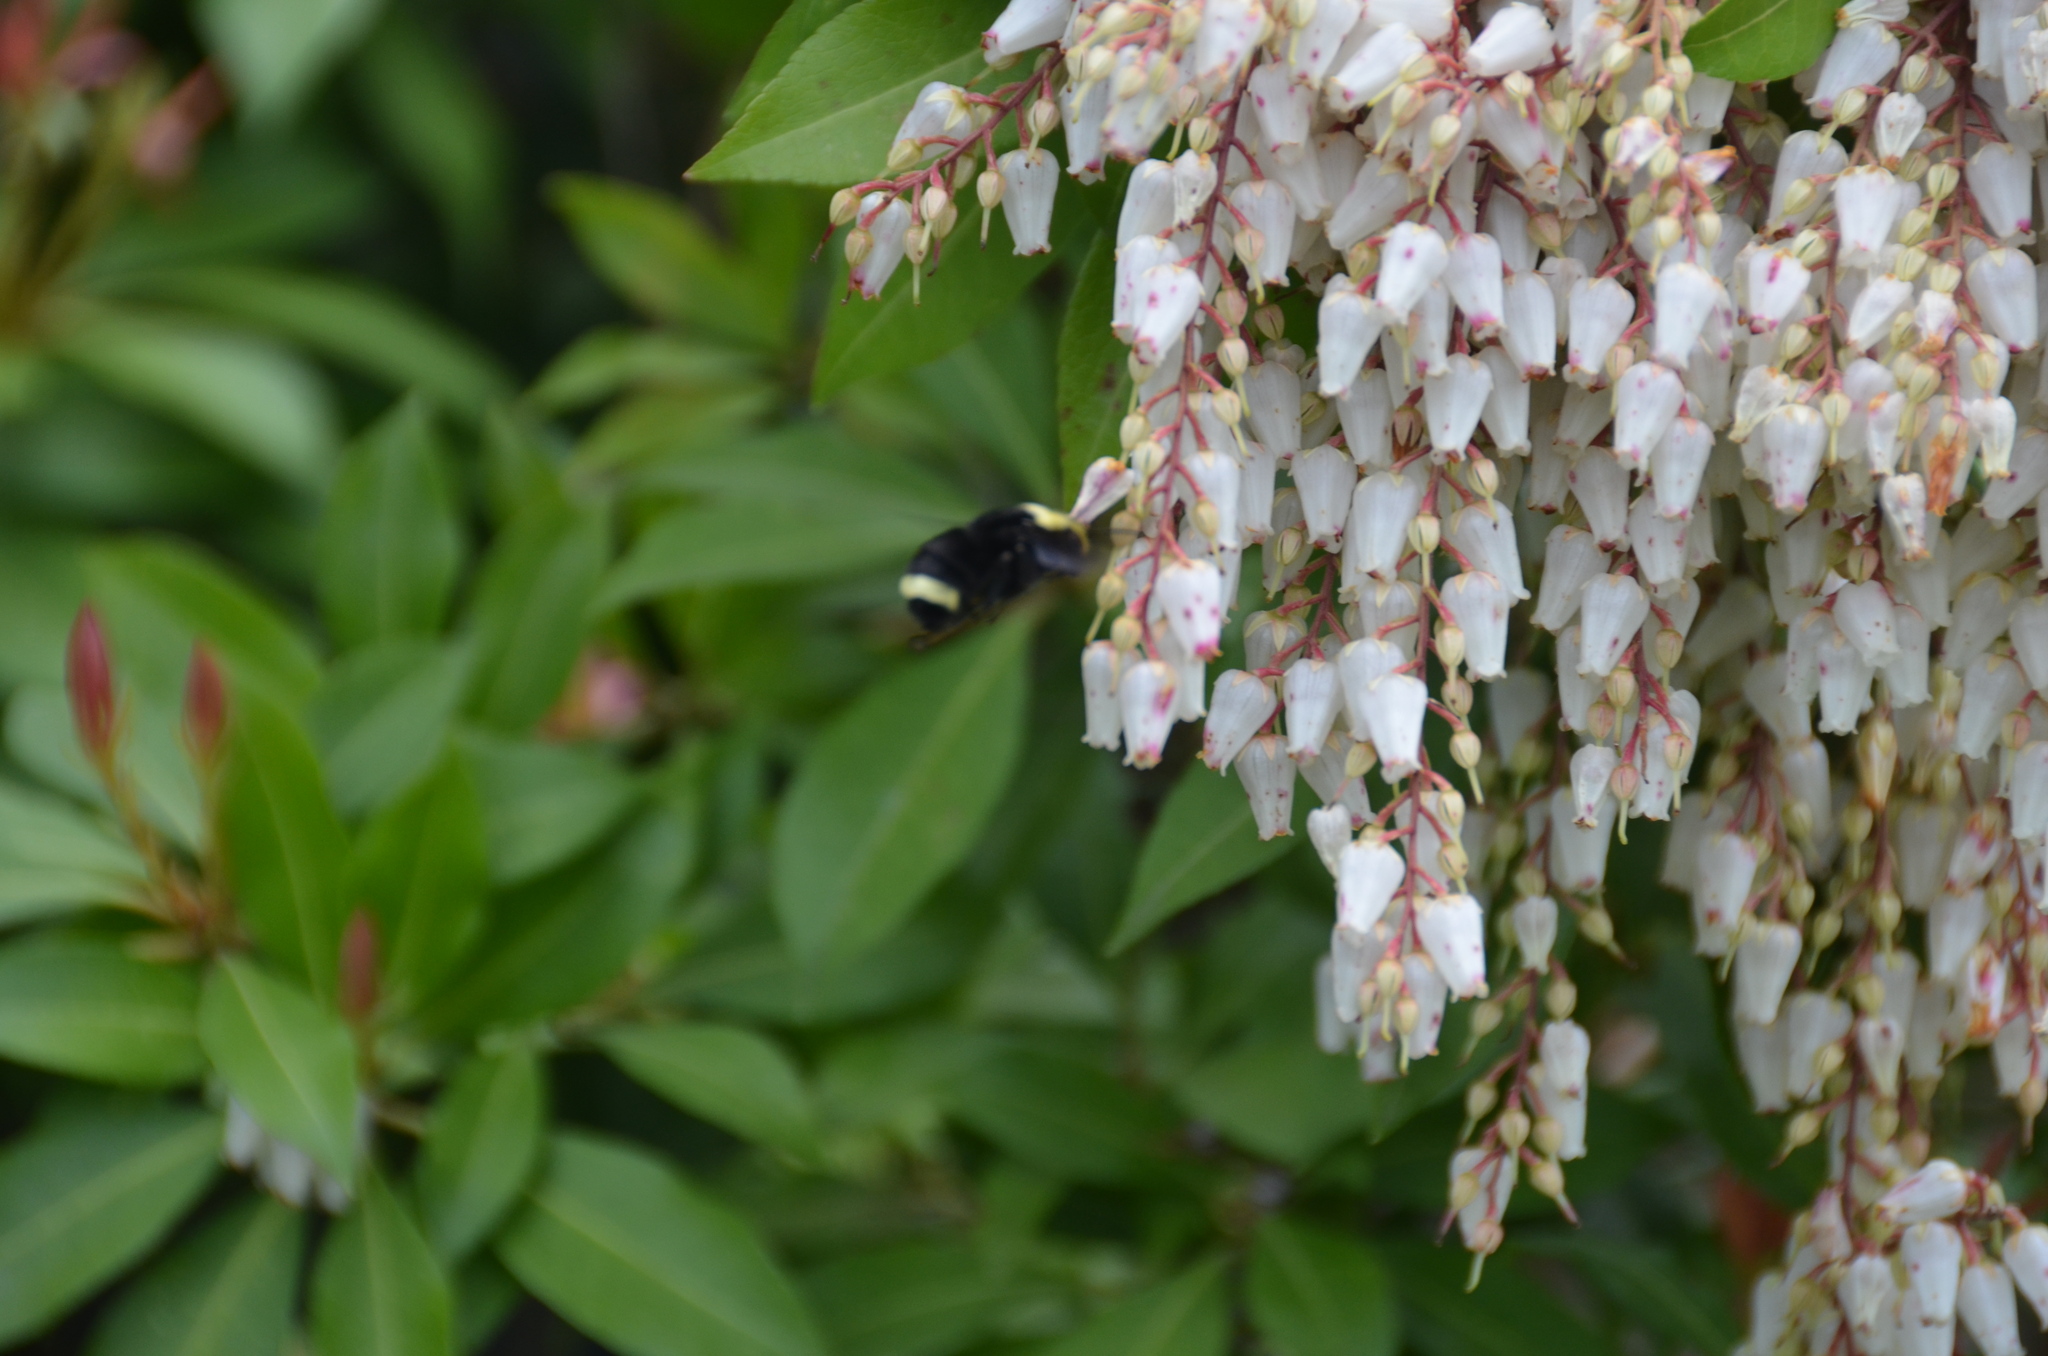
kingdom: Animalia
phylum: Arthropoda
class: Insecta
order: Hymenoptera
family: Apidae
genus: Bombus
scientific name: Bombus vosnesenskii
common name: Vosnesensky bumble bee
